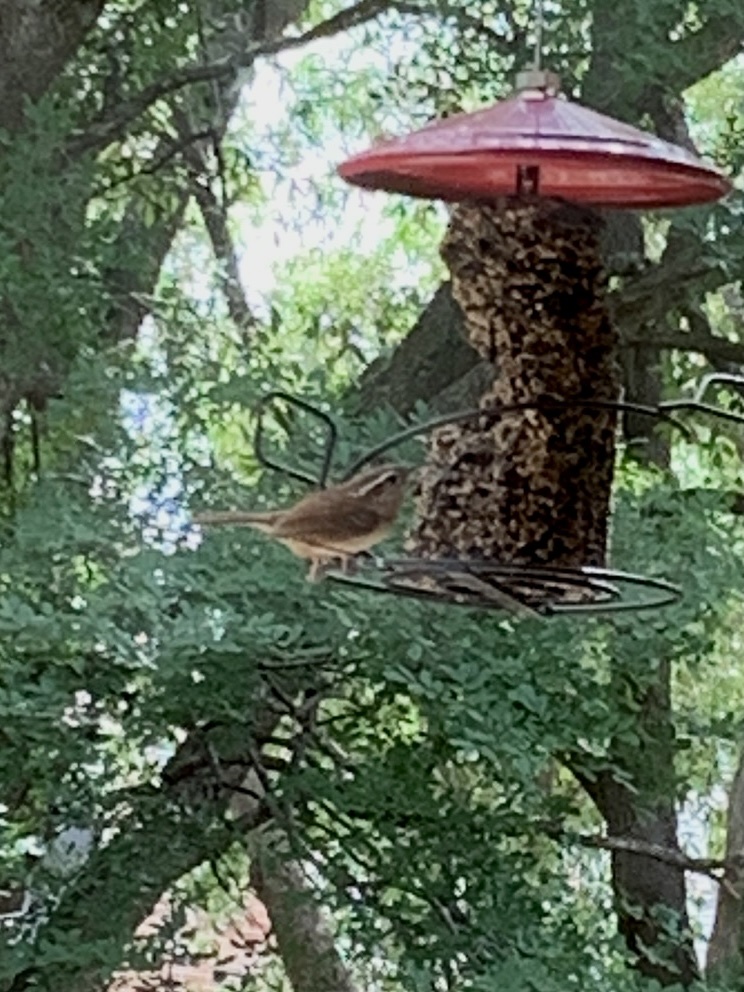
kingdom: Animalia
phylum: Chordata
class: Aves
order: Passeriformes
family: Troglodytidae
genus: Thryothorus
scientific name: Thryothorus ludovicianus
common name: Carolina wren
